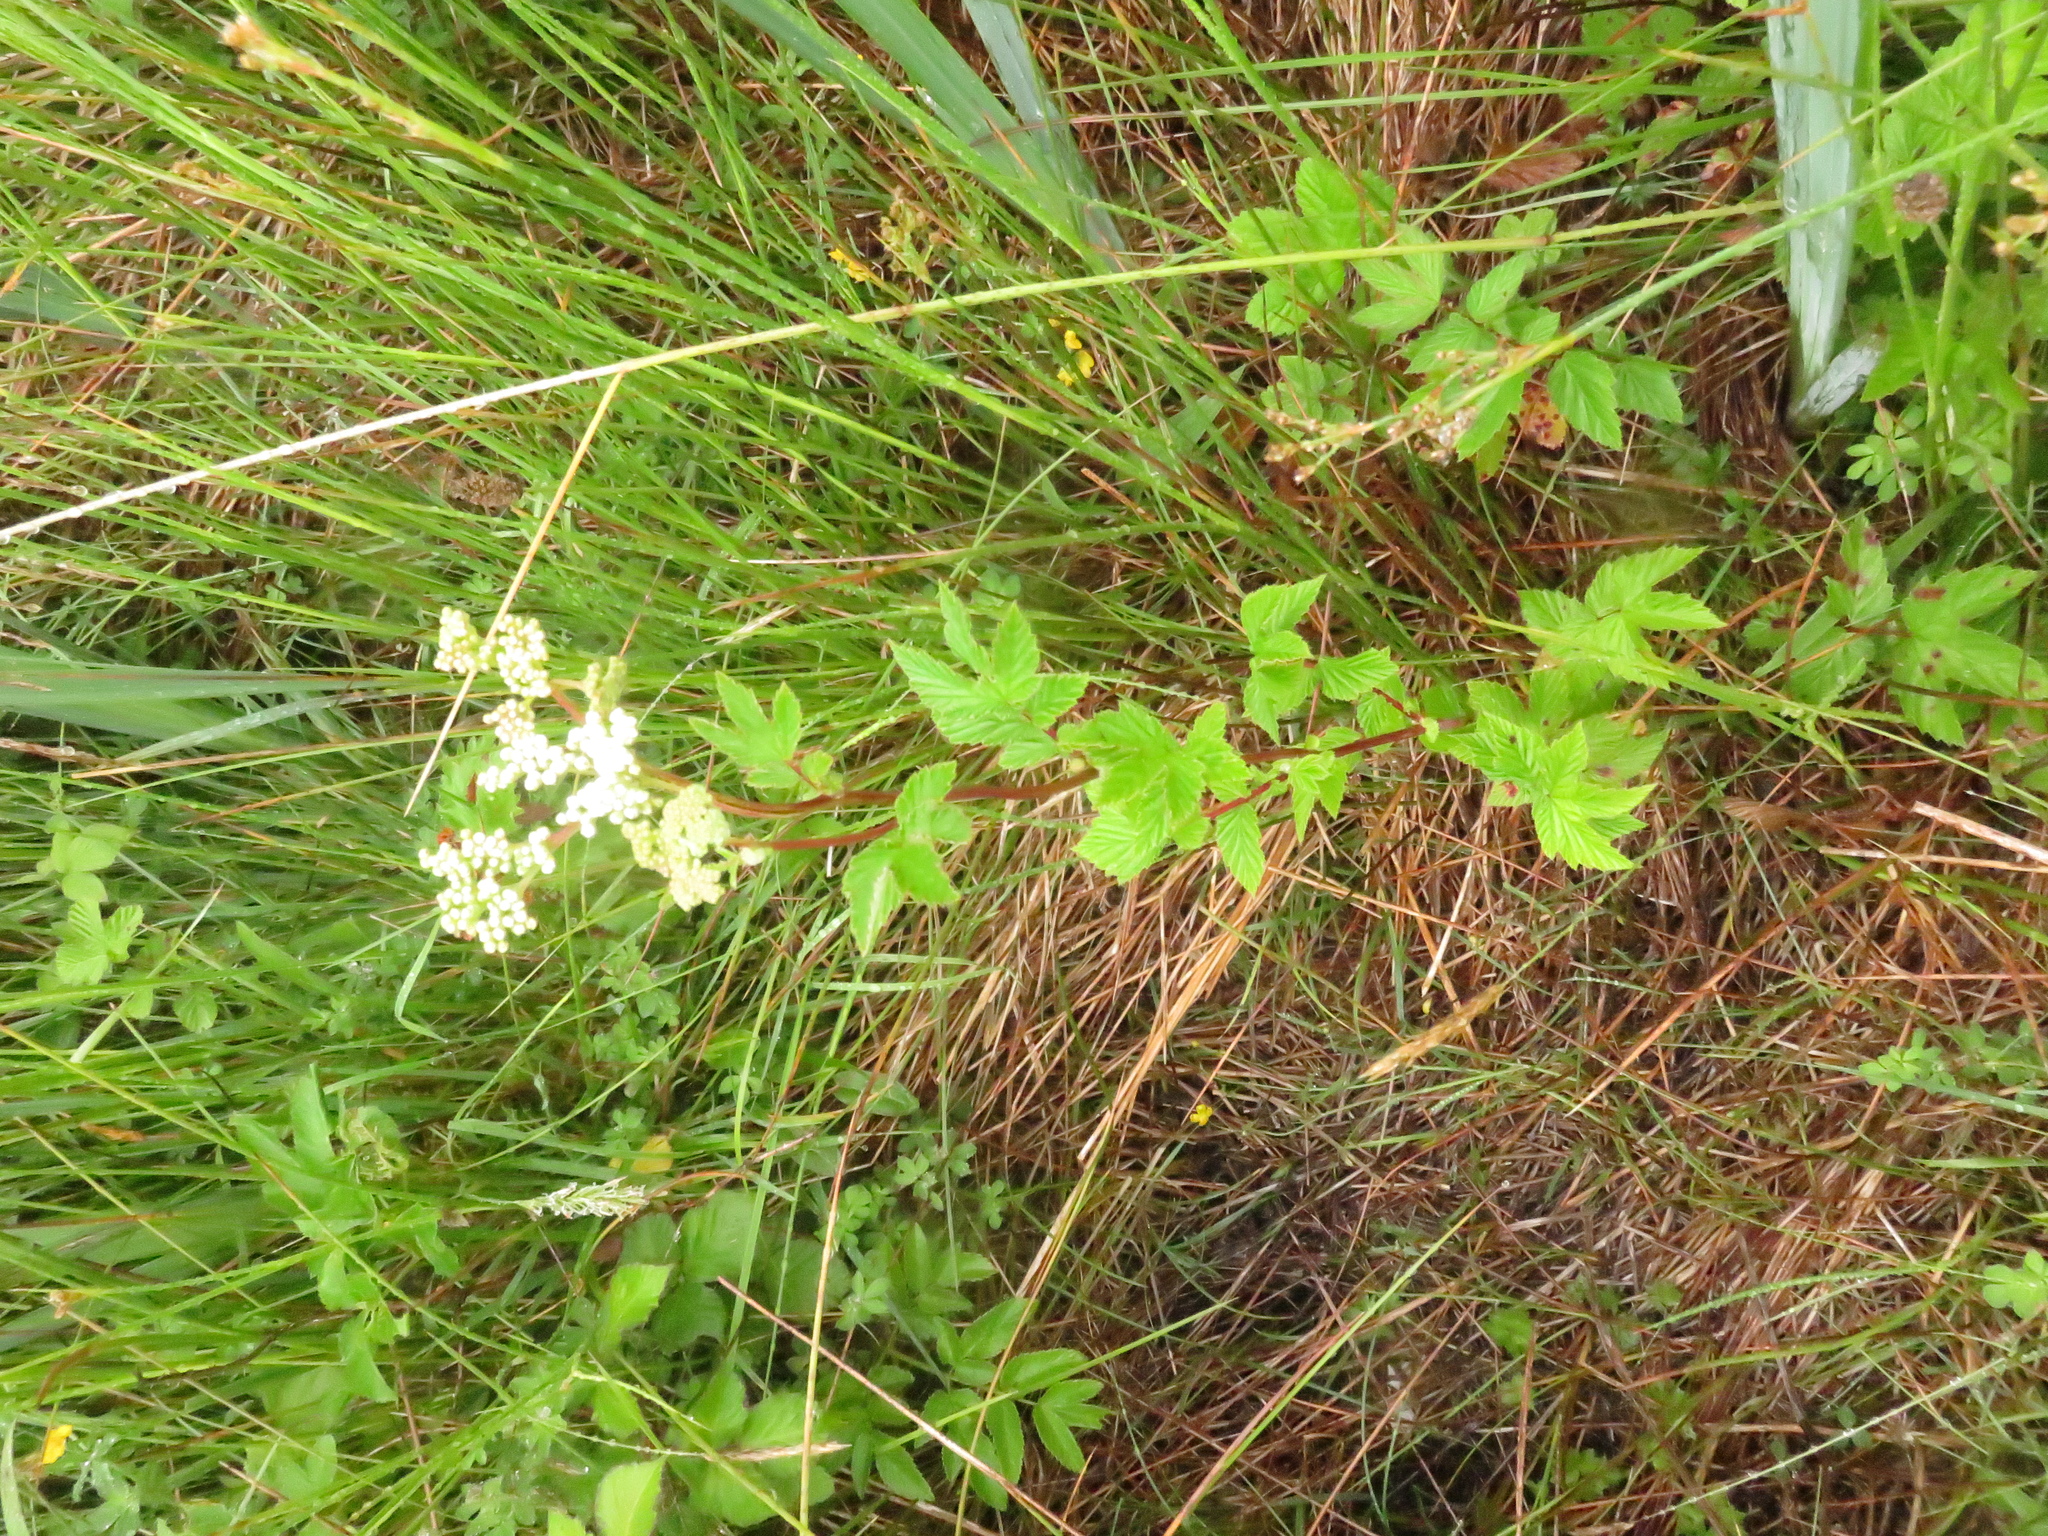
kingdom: Plantae
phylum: Tracheophyta
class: Magnoliopsida
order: Rosales
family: Rosaceae
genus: Filipendula
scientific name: Filipendula ulmaria
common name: Meadowsweet
